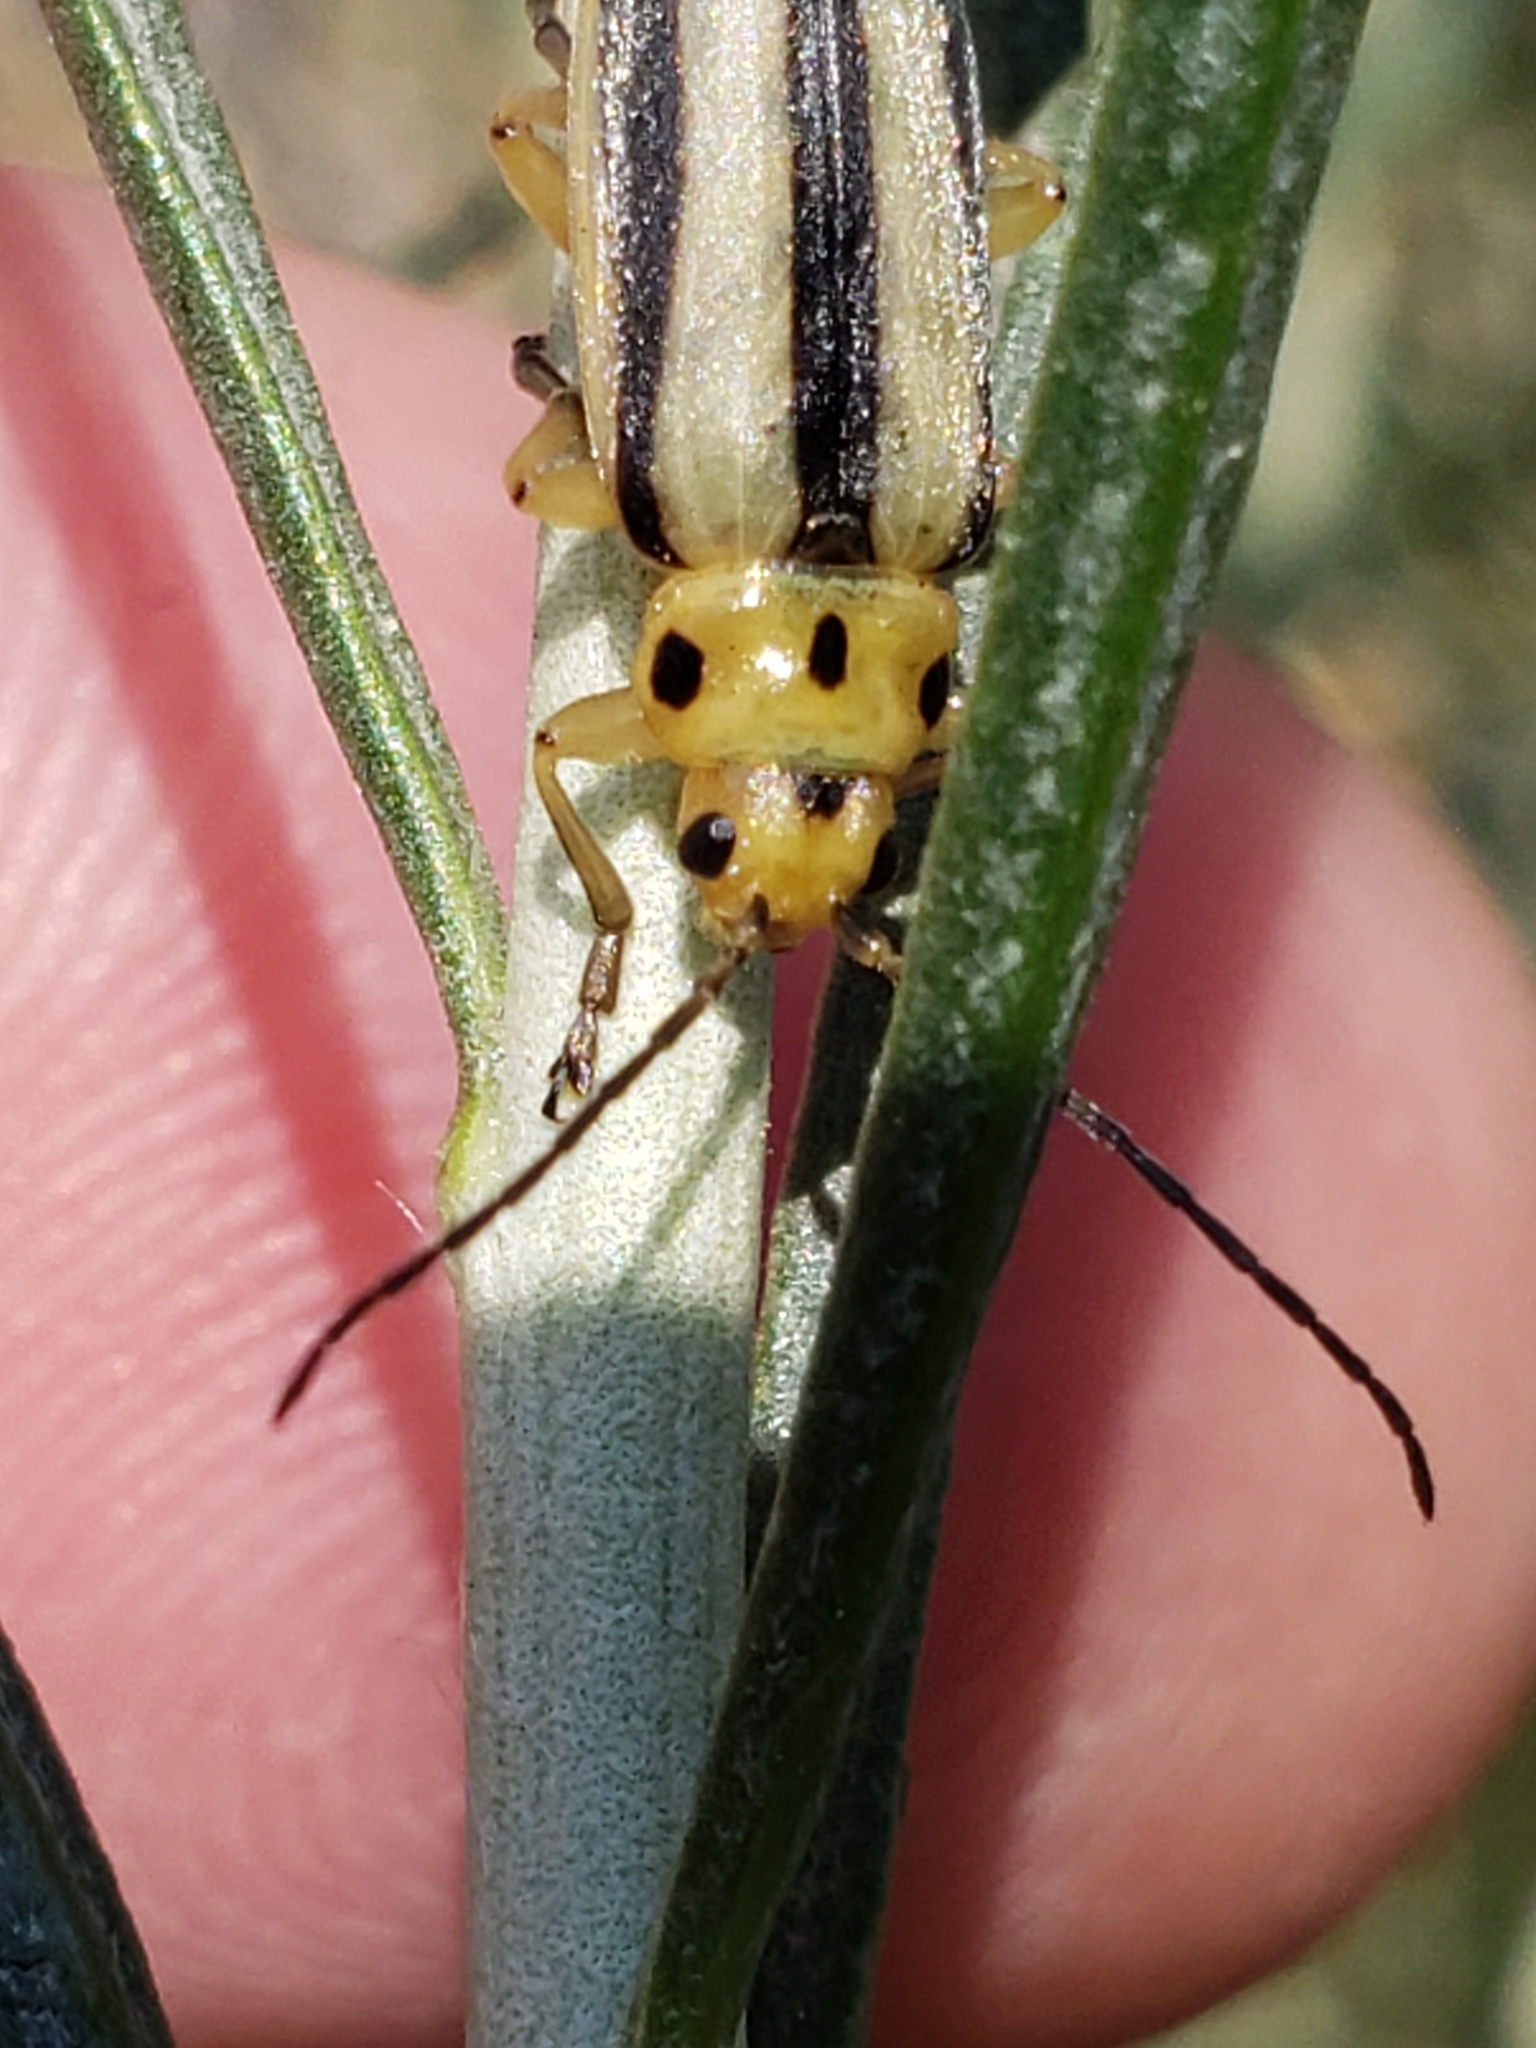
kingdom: Animalia
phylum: Arthropoda
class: Insecta
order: Coleoptera
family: Chrysomelidae
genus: Trirhabda
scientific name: Trirhabda nitidicollis
